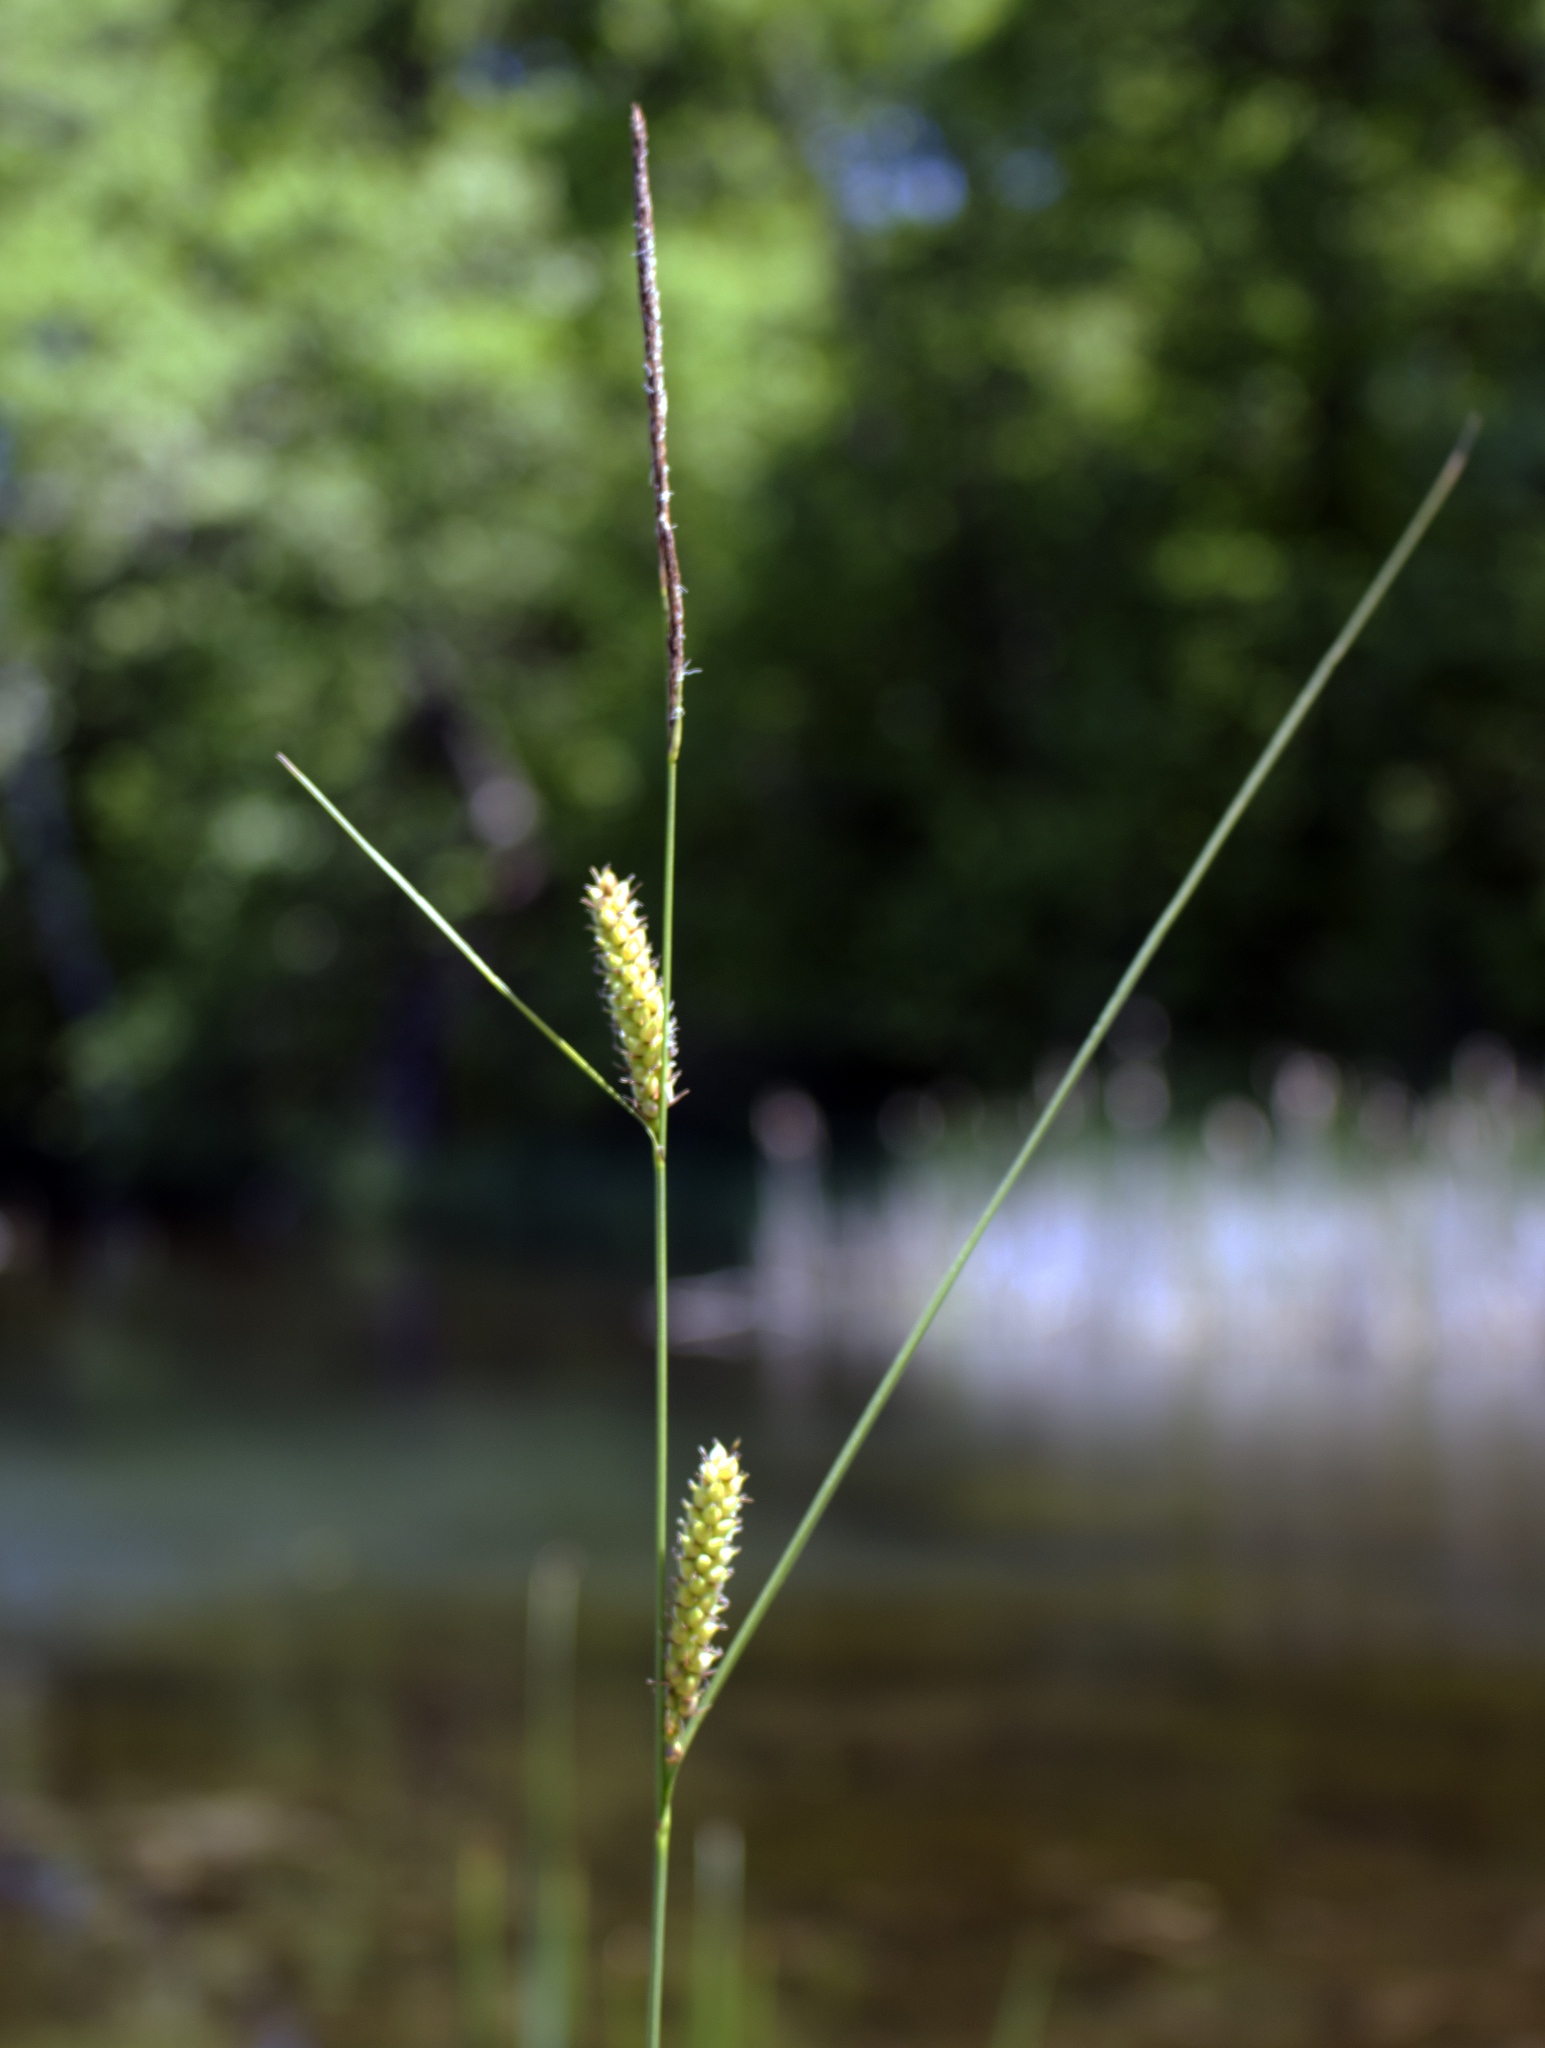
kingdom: Plantae
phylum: Tracheophyta
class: Liliopsida
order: Poales
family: Cyperaceae
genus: Carex
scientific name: Carex pellita
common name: Woolly sedge
